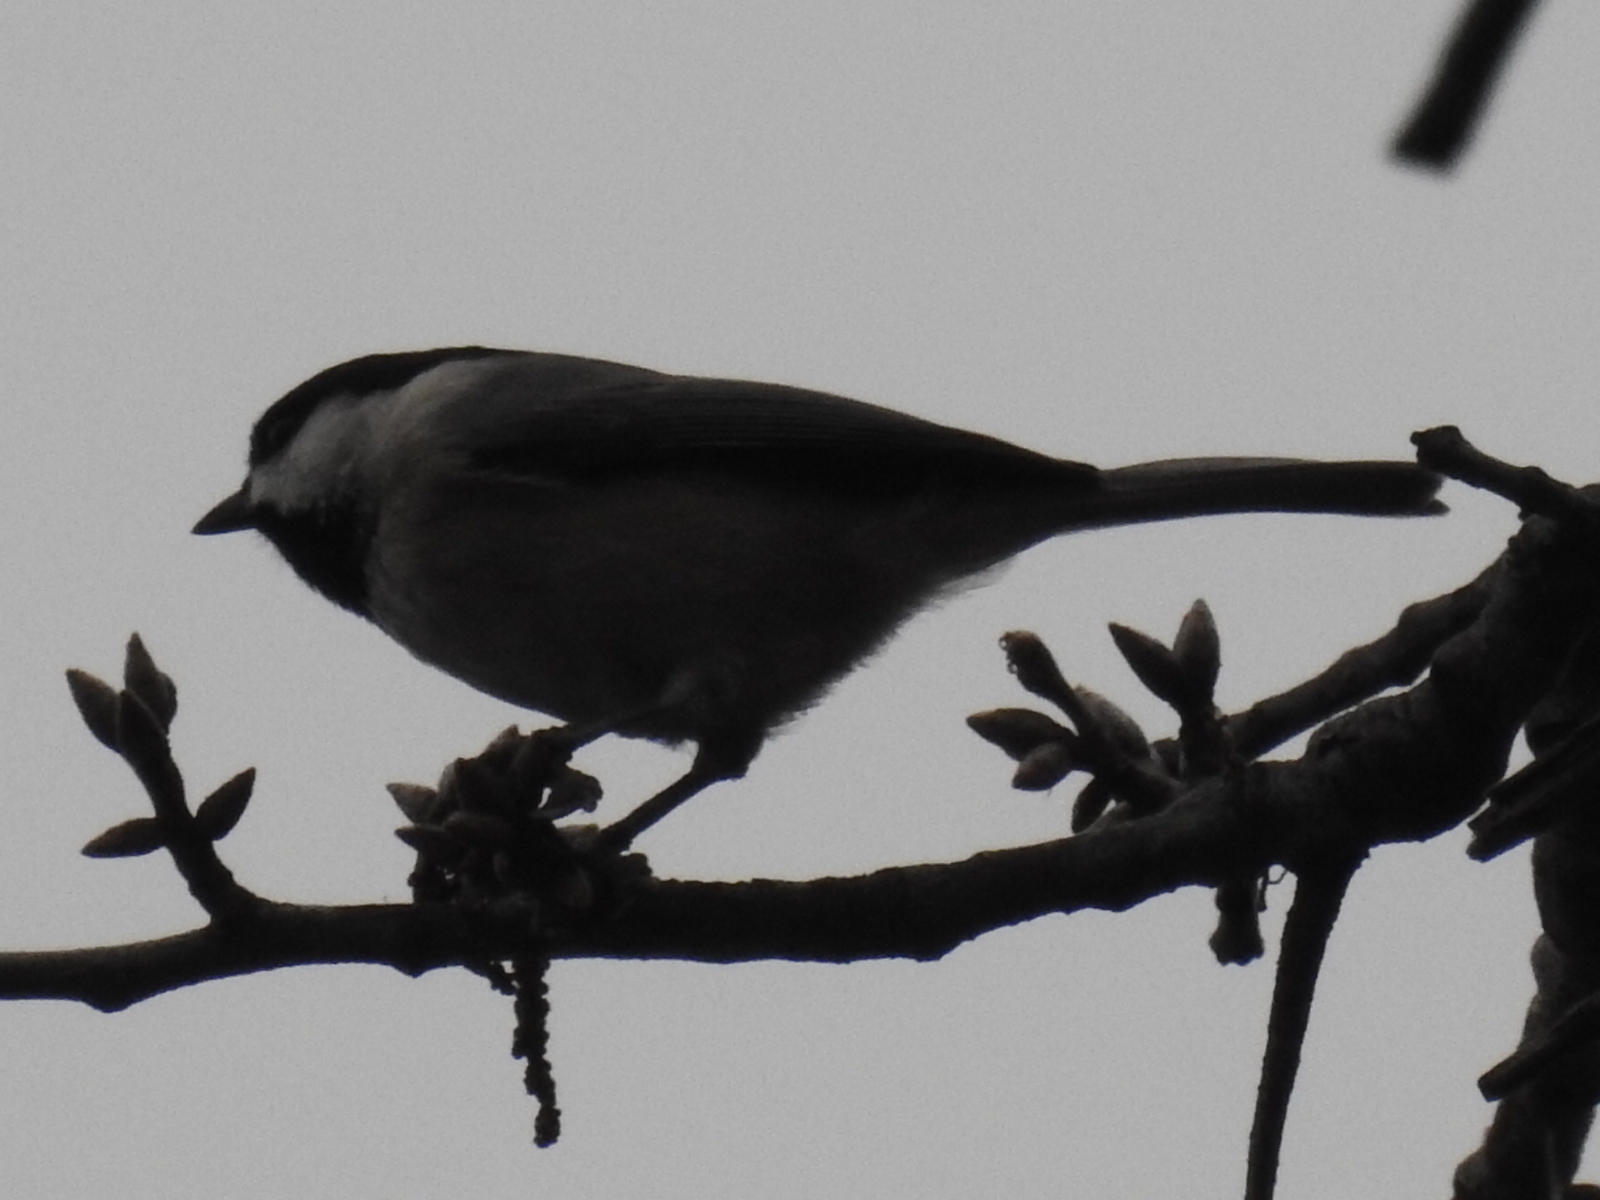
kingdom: Animalia
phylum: Chordata
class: Aves
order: Passeriformes
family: Paridae
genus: Poecile
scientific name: Poecile carolinensis
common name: Carolina chickadee
